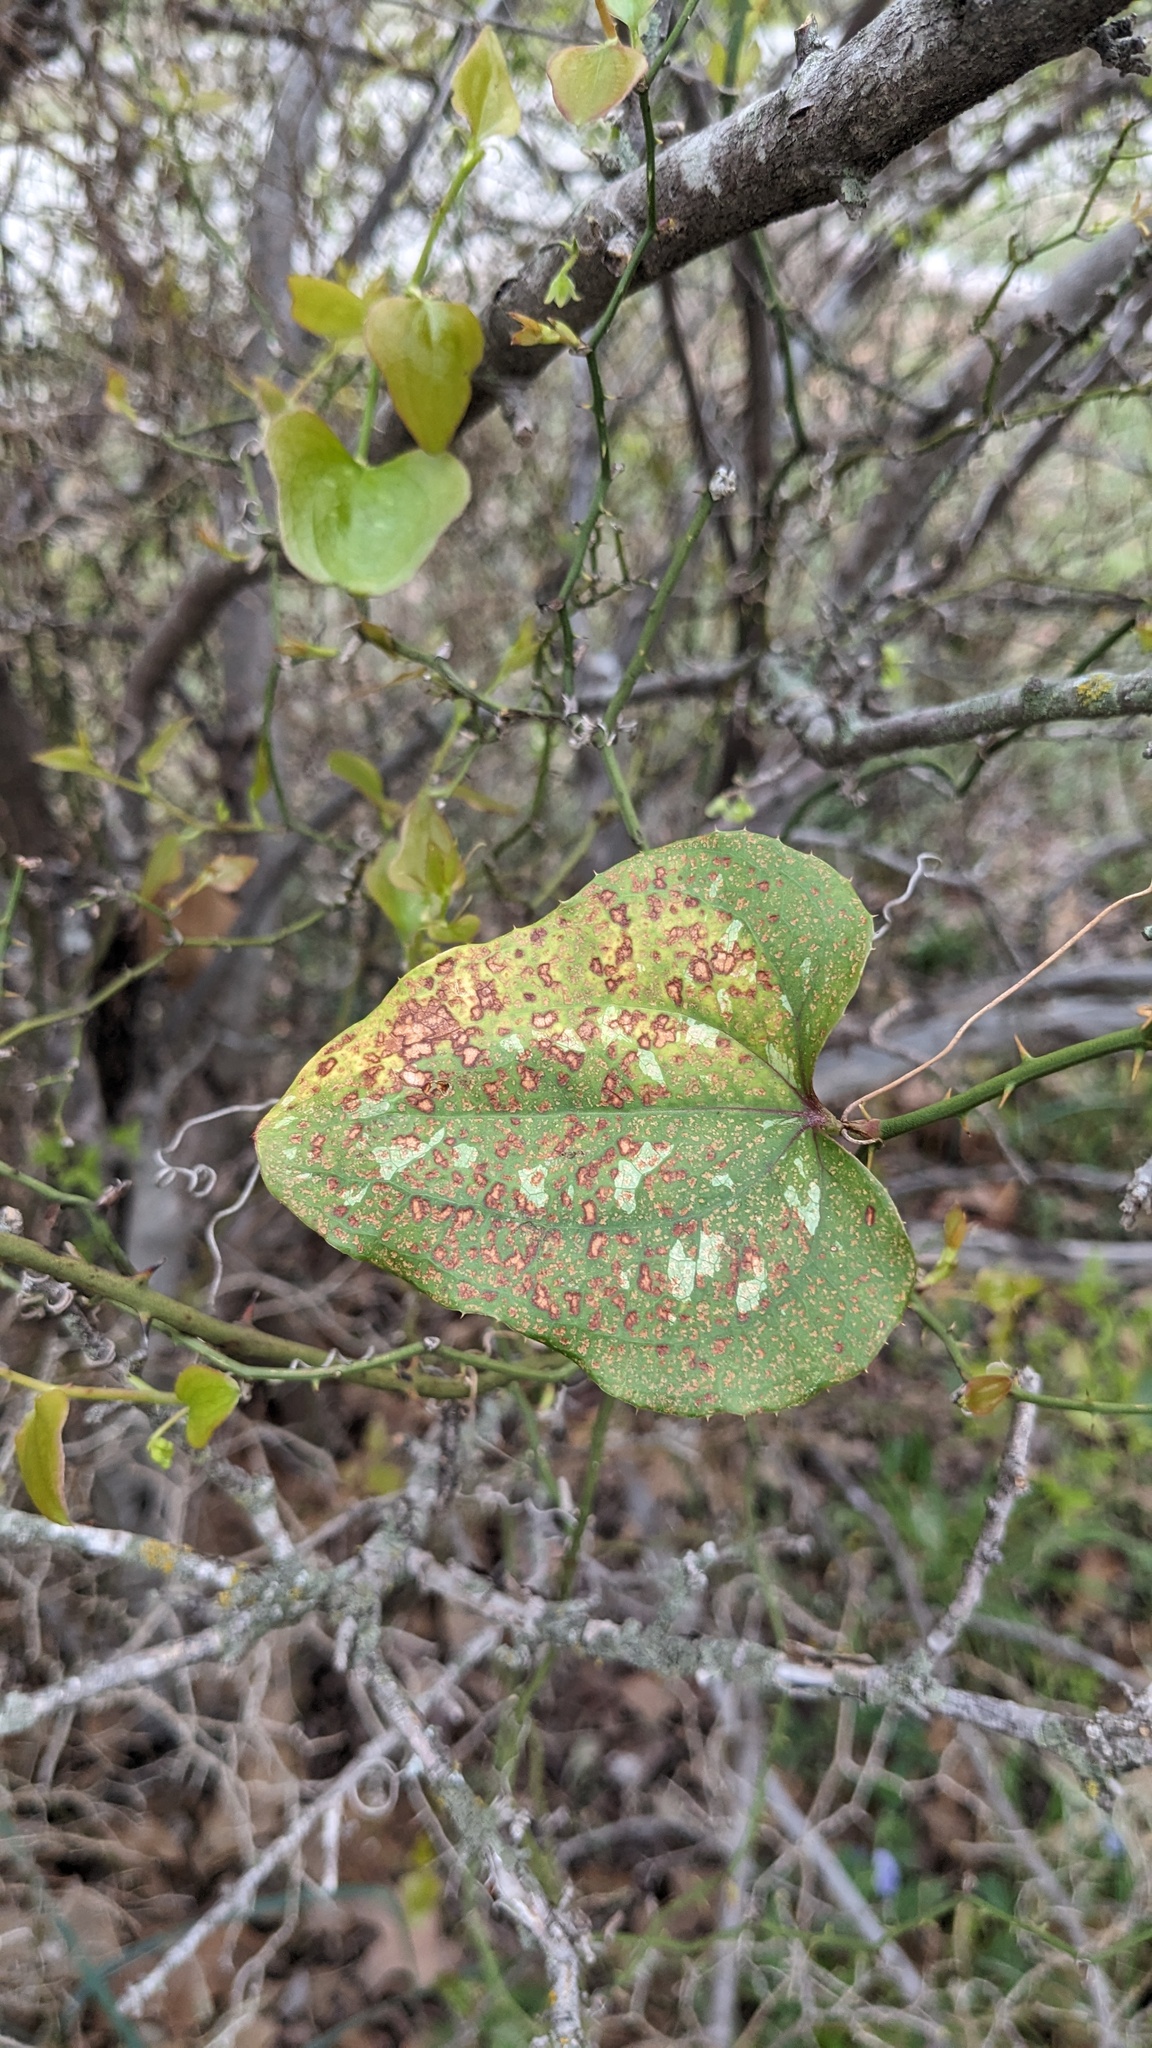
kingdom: Plantae
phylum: Tracheophyta
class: Liliopsida
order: Liliales
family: Smilacaceae
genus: Smilax
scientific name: Smilax bona-nox
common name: Catbrier
